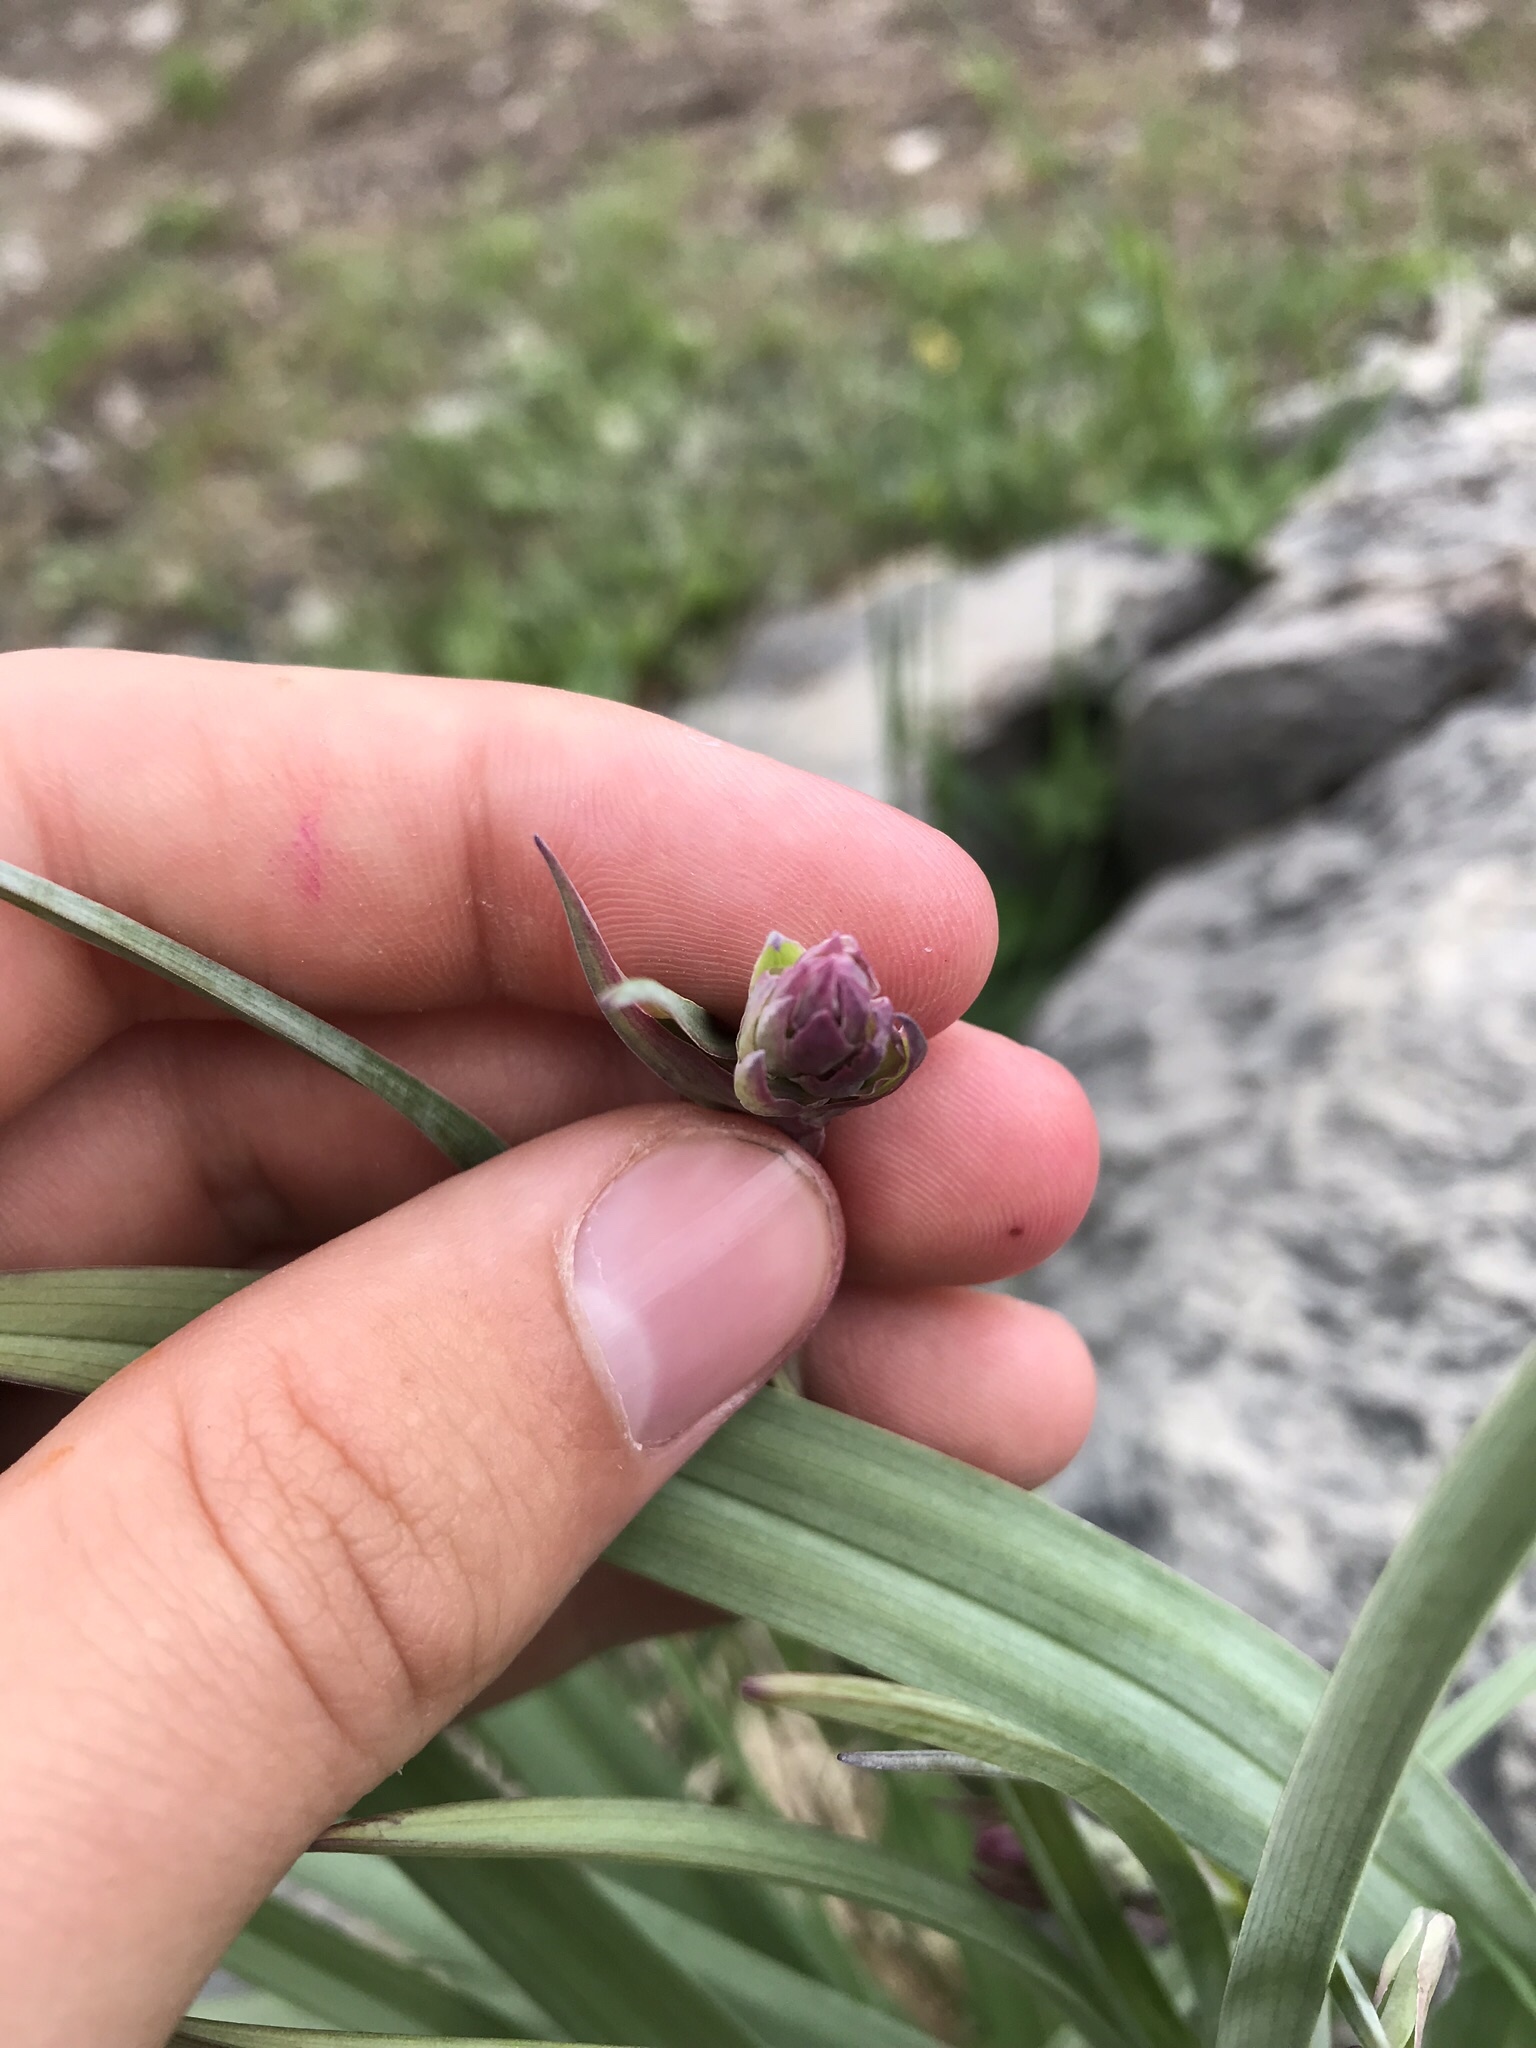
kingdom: Plantae
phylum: Tracheophyta
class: Liliopsida
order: Liliales
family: Melanthiaceae
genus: Anticlea
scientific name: Anticlea elegans
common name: Mountain death camas
